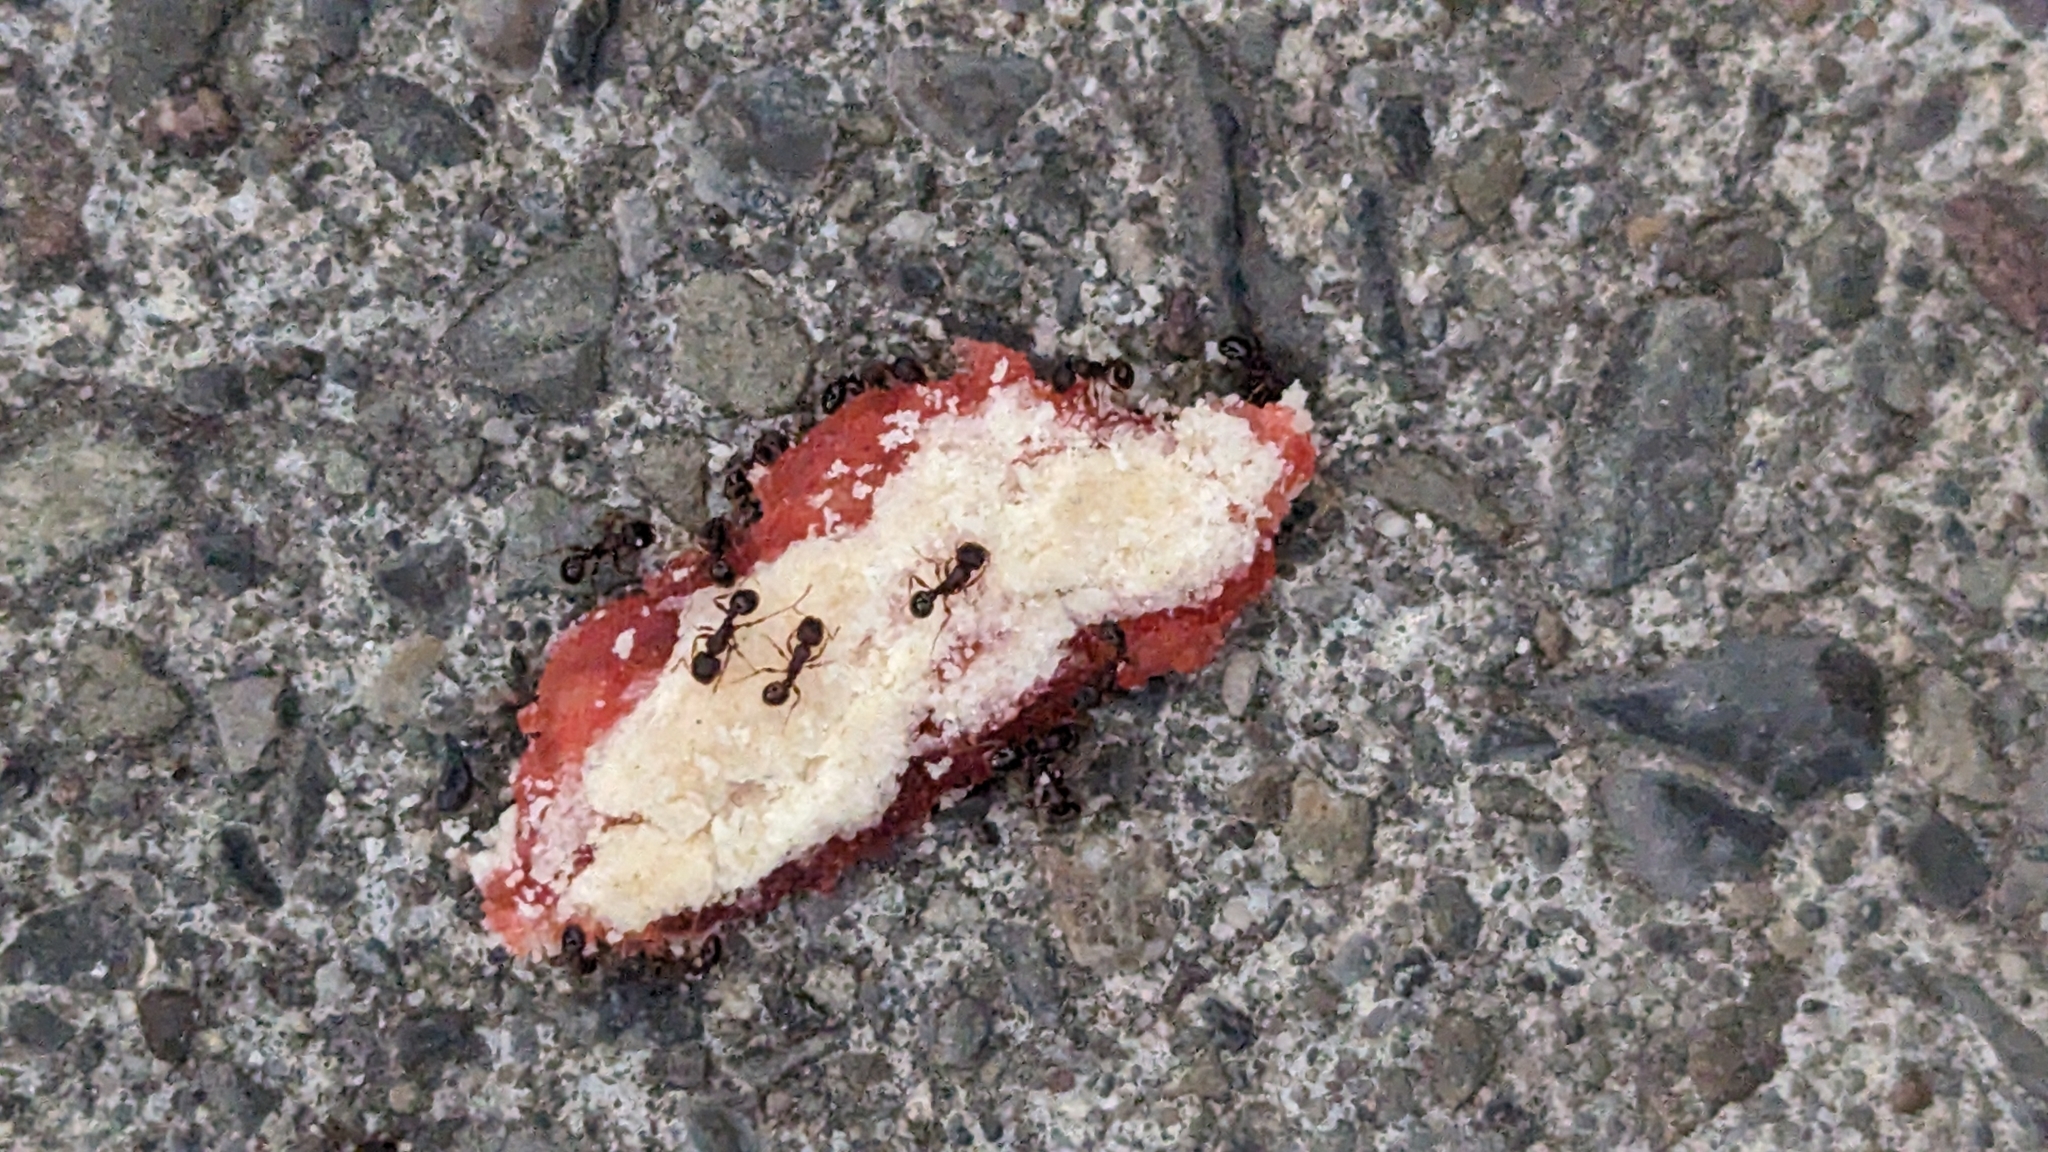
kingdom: Animalia
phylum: Arthropoda
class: Insecta
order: Hymenoptera
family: Formicidae
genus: Tetramorium
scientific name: Tetramorium immigrans
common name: Pavement ant
